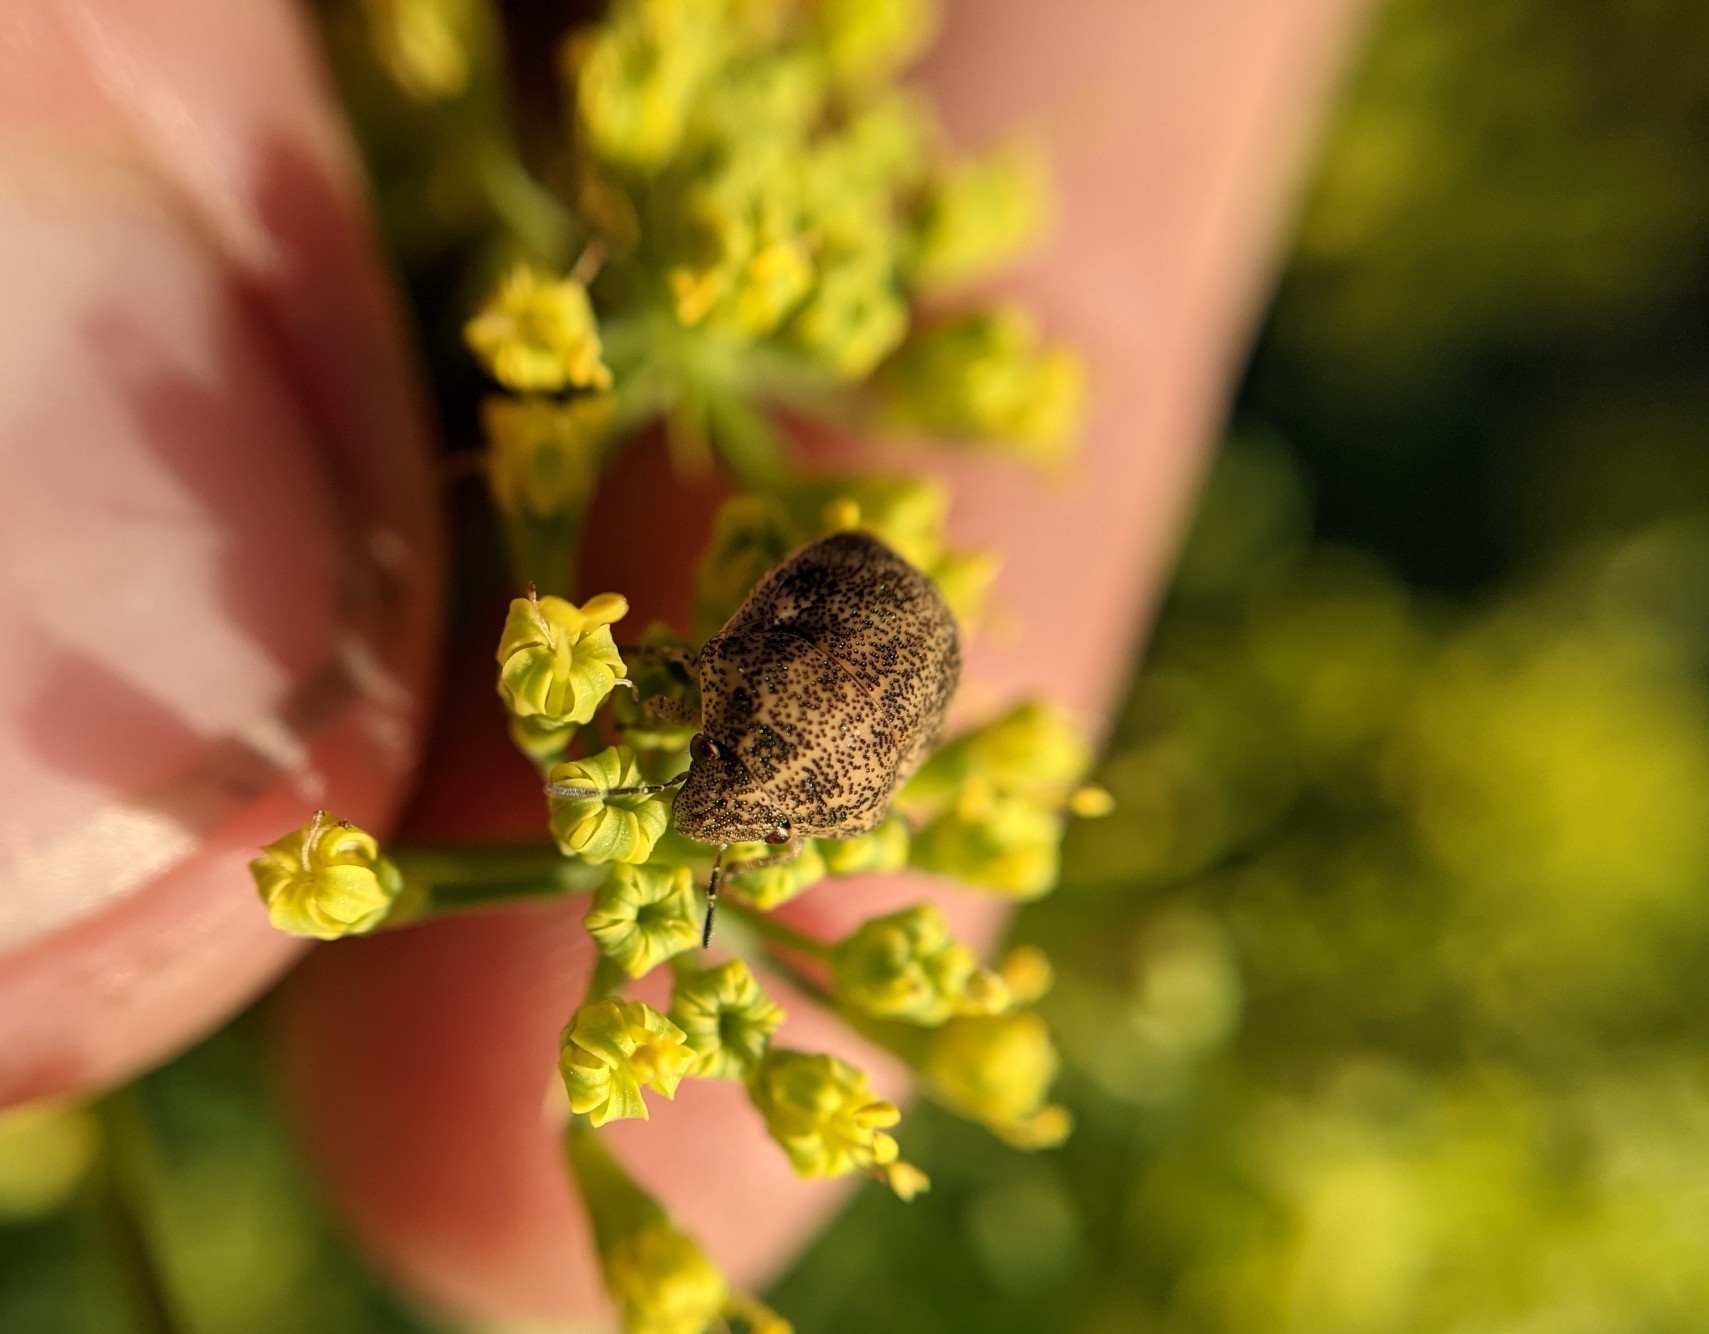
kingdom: Animalia
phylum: Arthropoda
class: Insecta
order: Hemiptera
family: Scutelleridae
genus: Orsilochides
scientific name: Orsilochides
